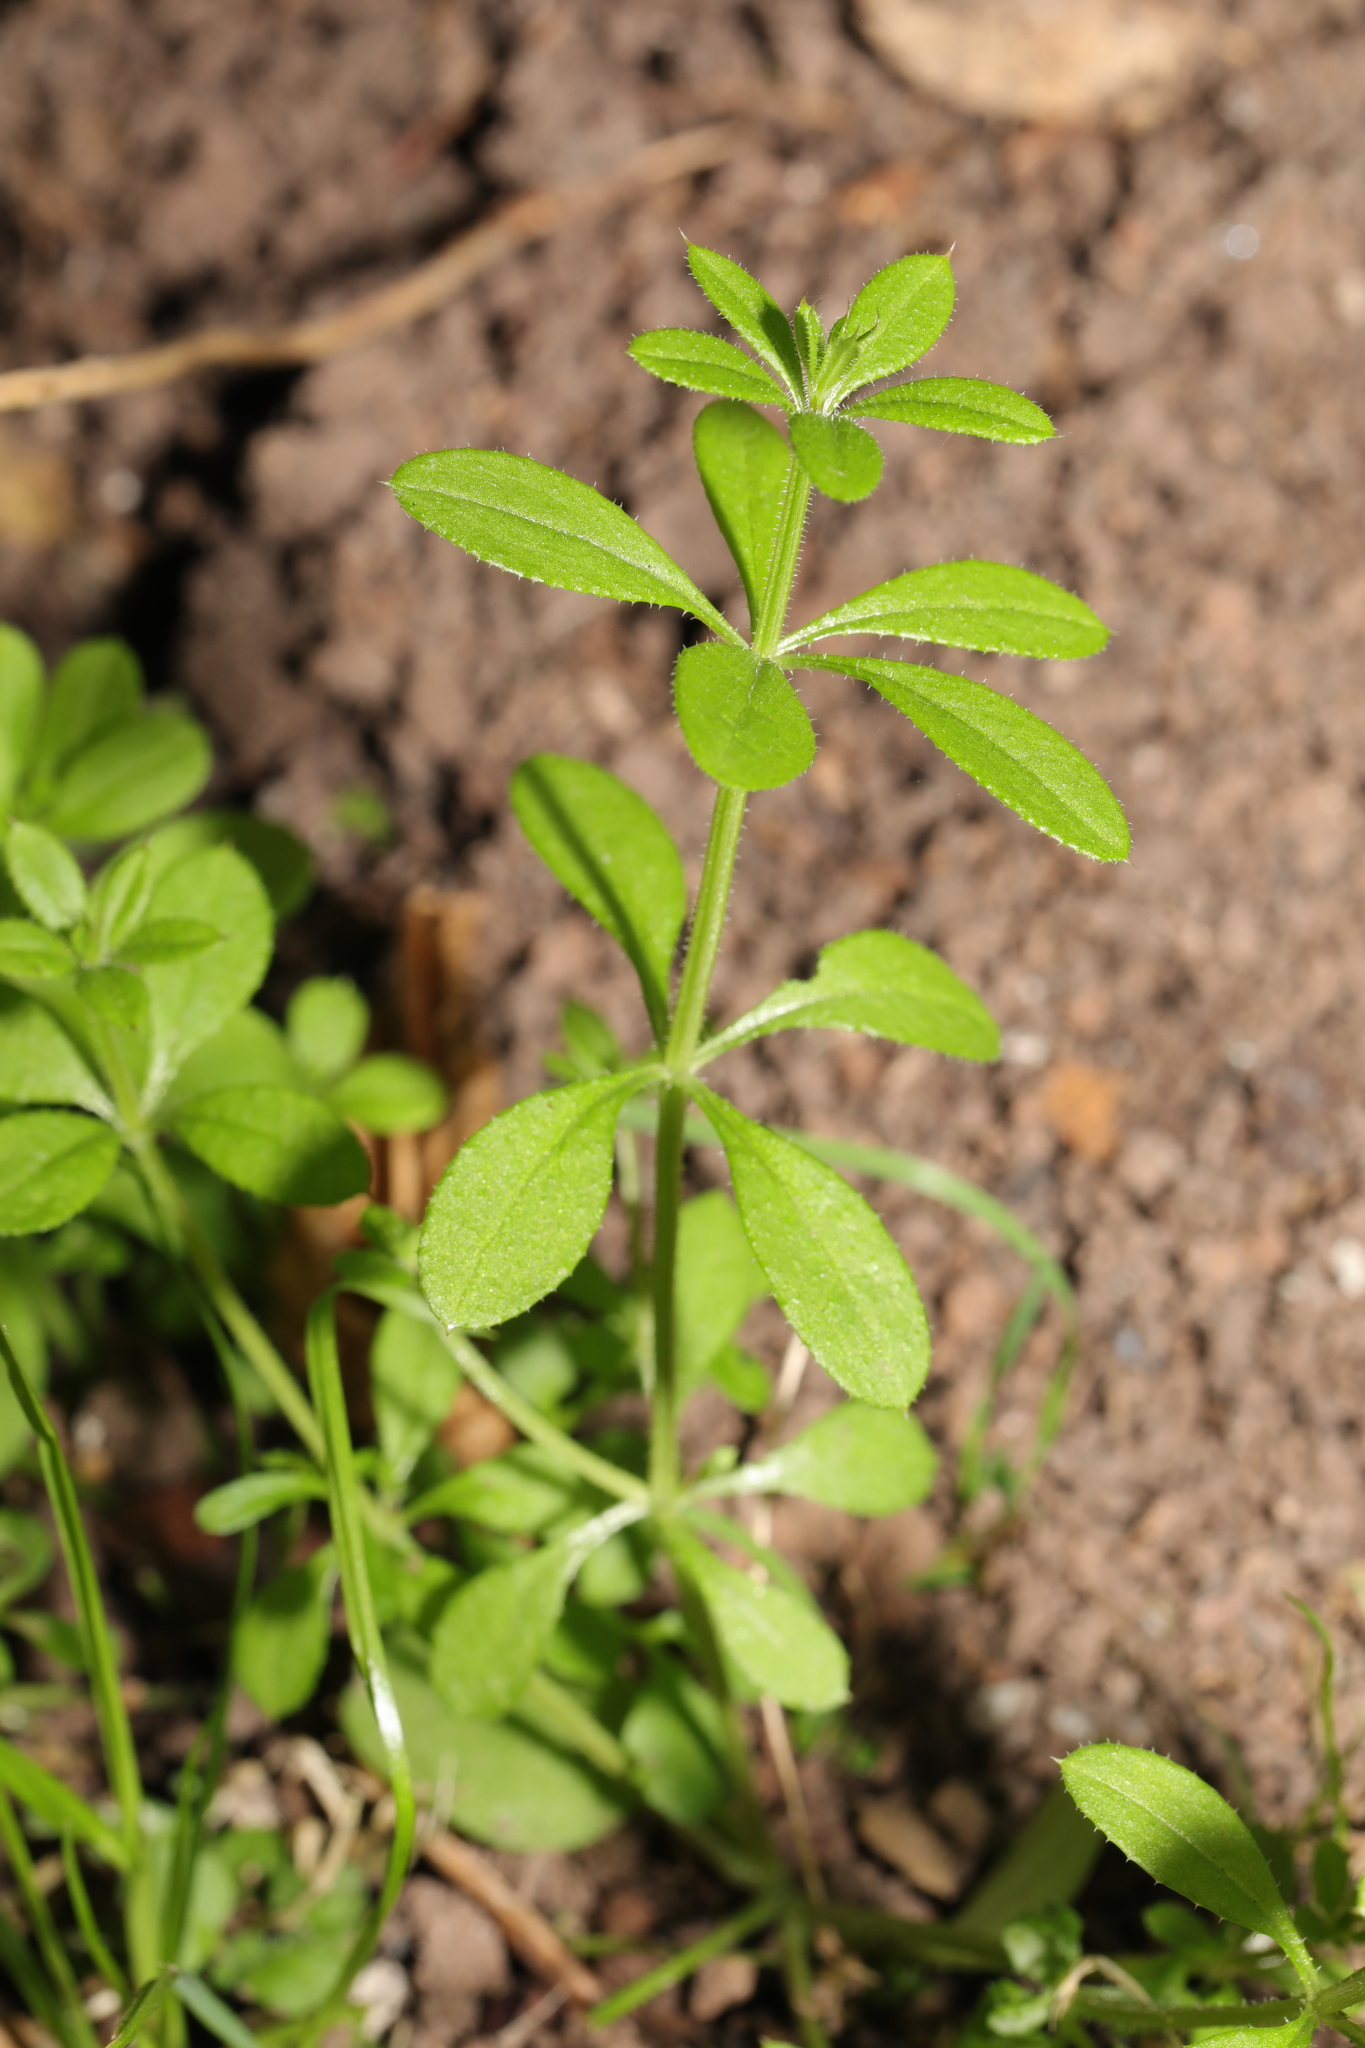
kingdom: Plantae
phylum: Tracheophyta
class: Magnoliopsida
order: Gentianales
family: Rubiaceae
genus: Galium
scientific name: Galium aparine
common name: Cleavers
